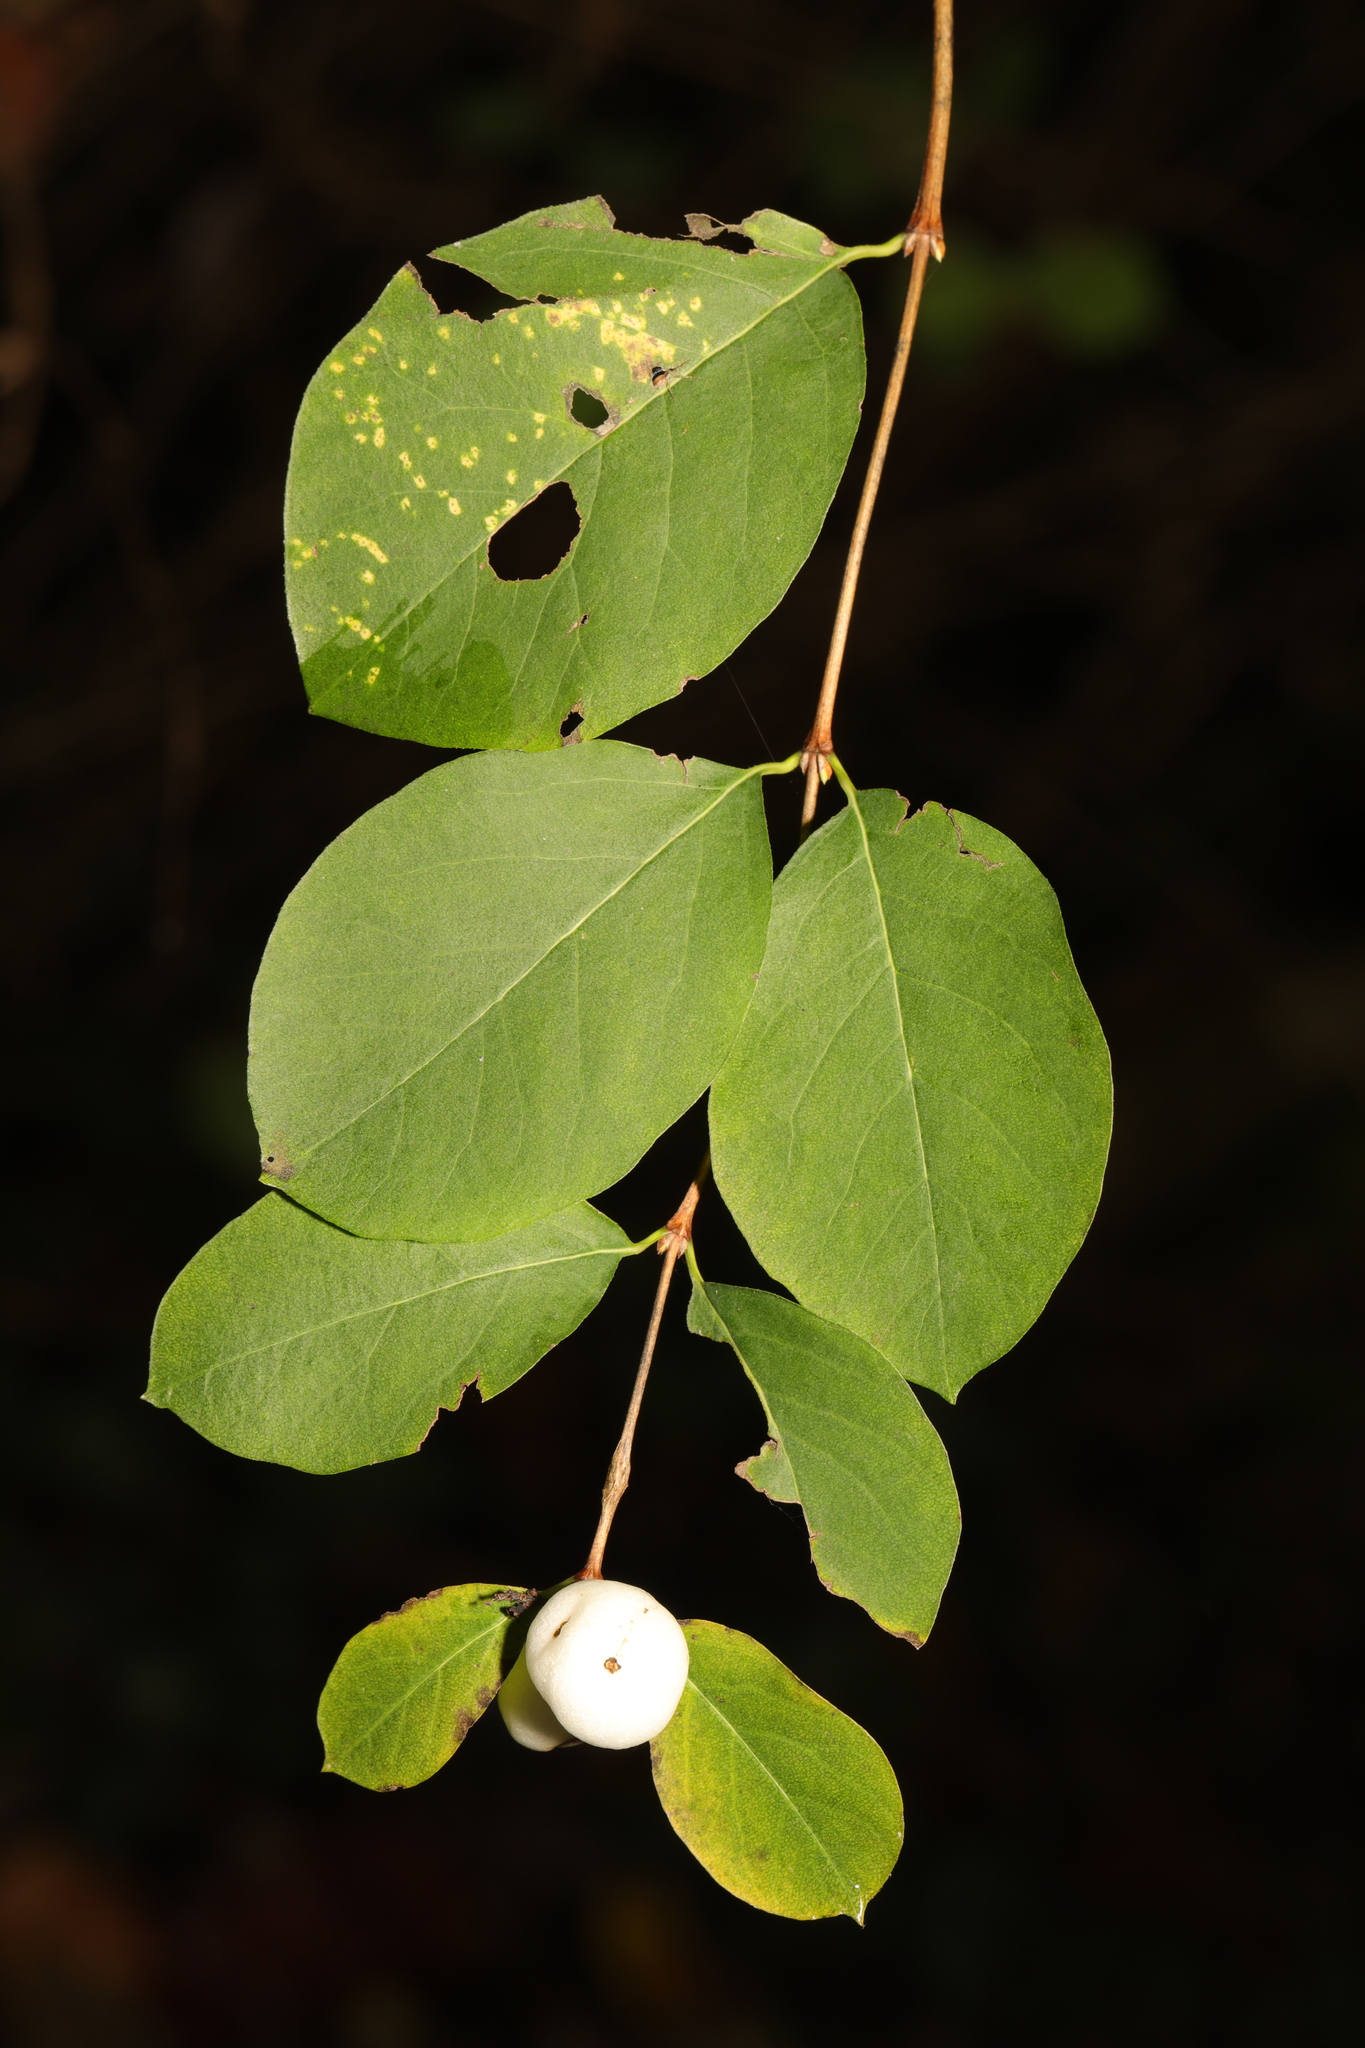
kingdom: Plantae
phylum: Tracheophyta
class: Magnoliopsida
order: Dipsacales
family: Caprifoliaceae
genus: Symphoricarpos
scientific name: Symphoricarpos albus
